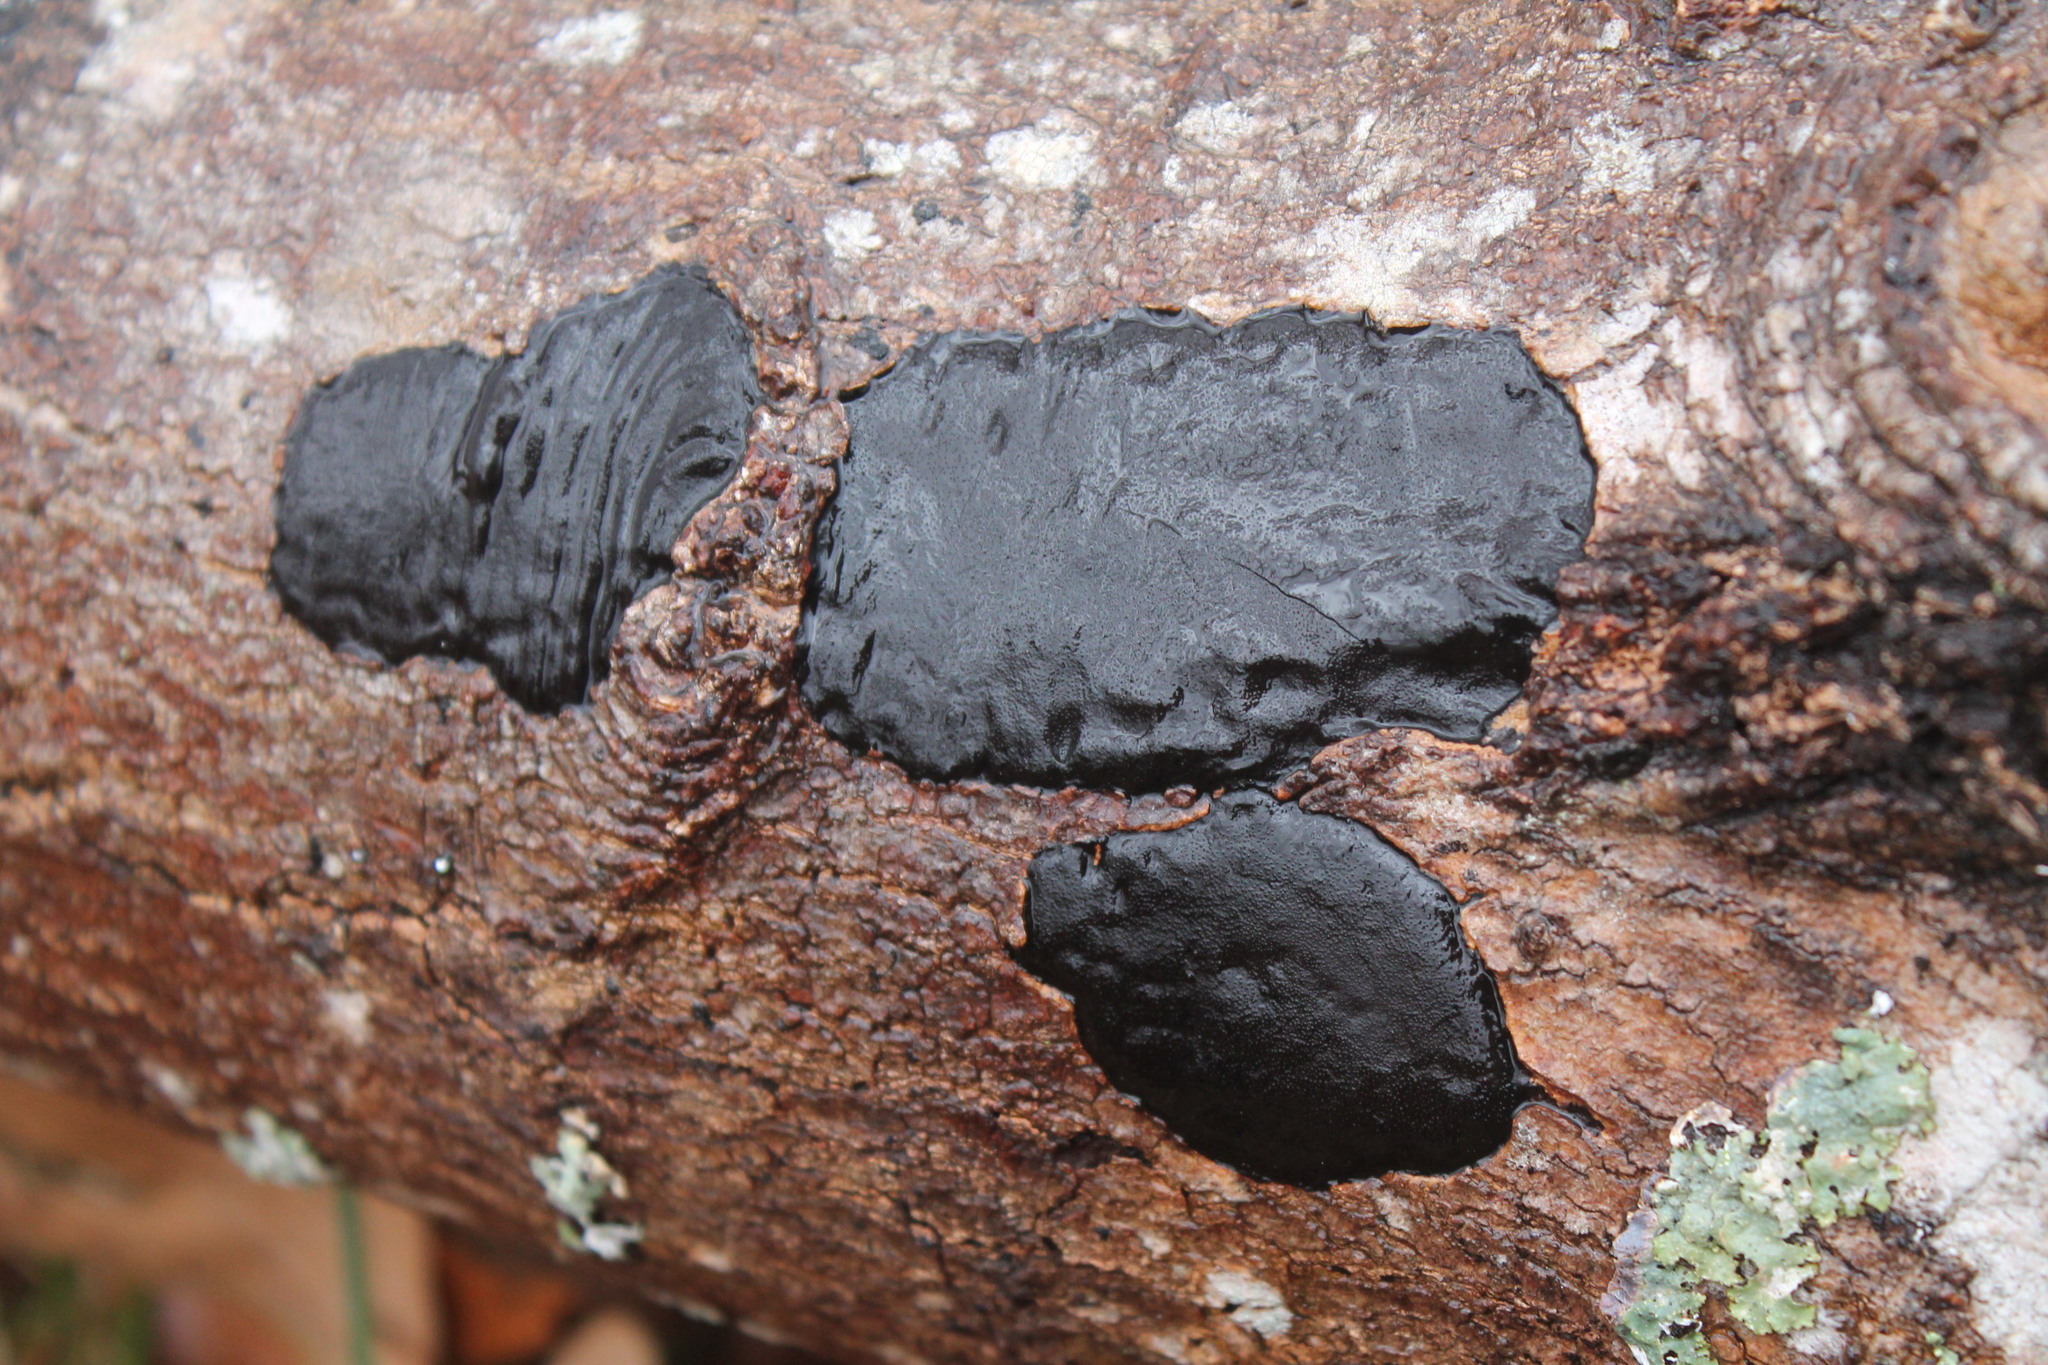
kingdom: Fungi
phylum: Ascomycota
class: Sordariomycetes
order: Xylariales
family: Diatrypaceae
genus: Diatrype
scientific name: Diatrype stigma
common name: Common tarcrust
